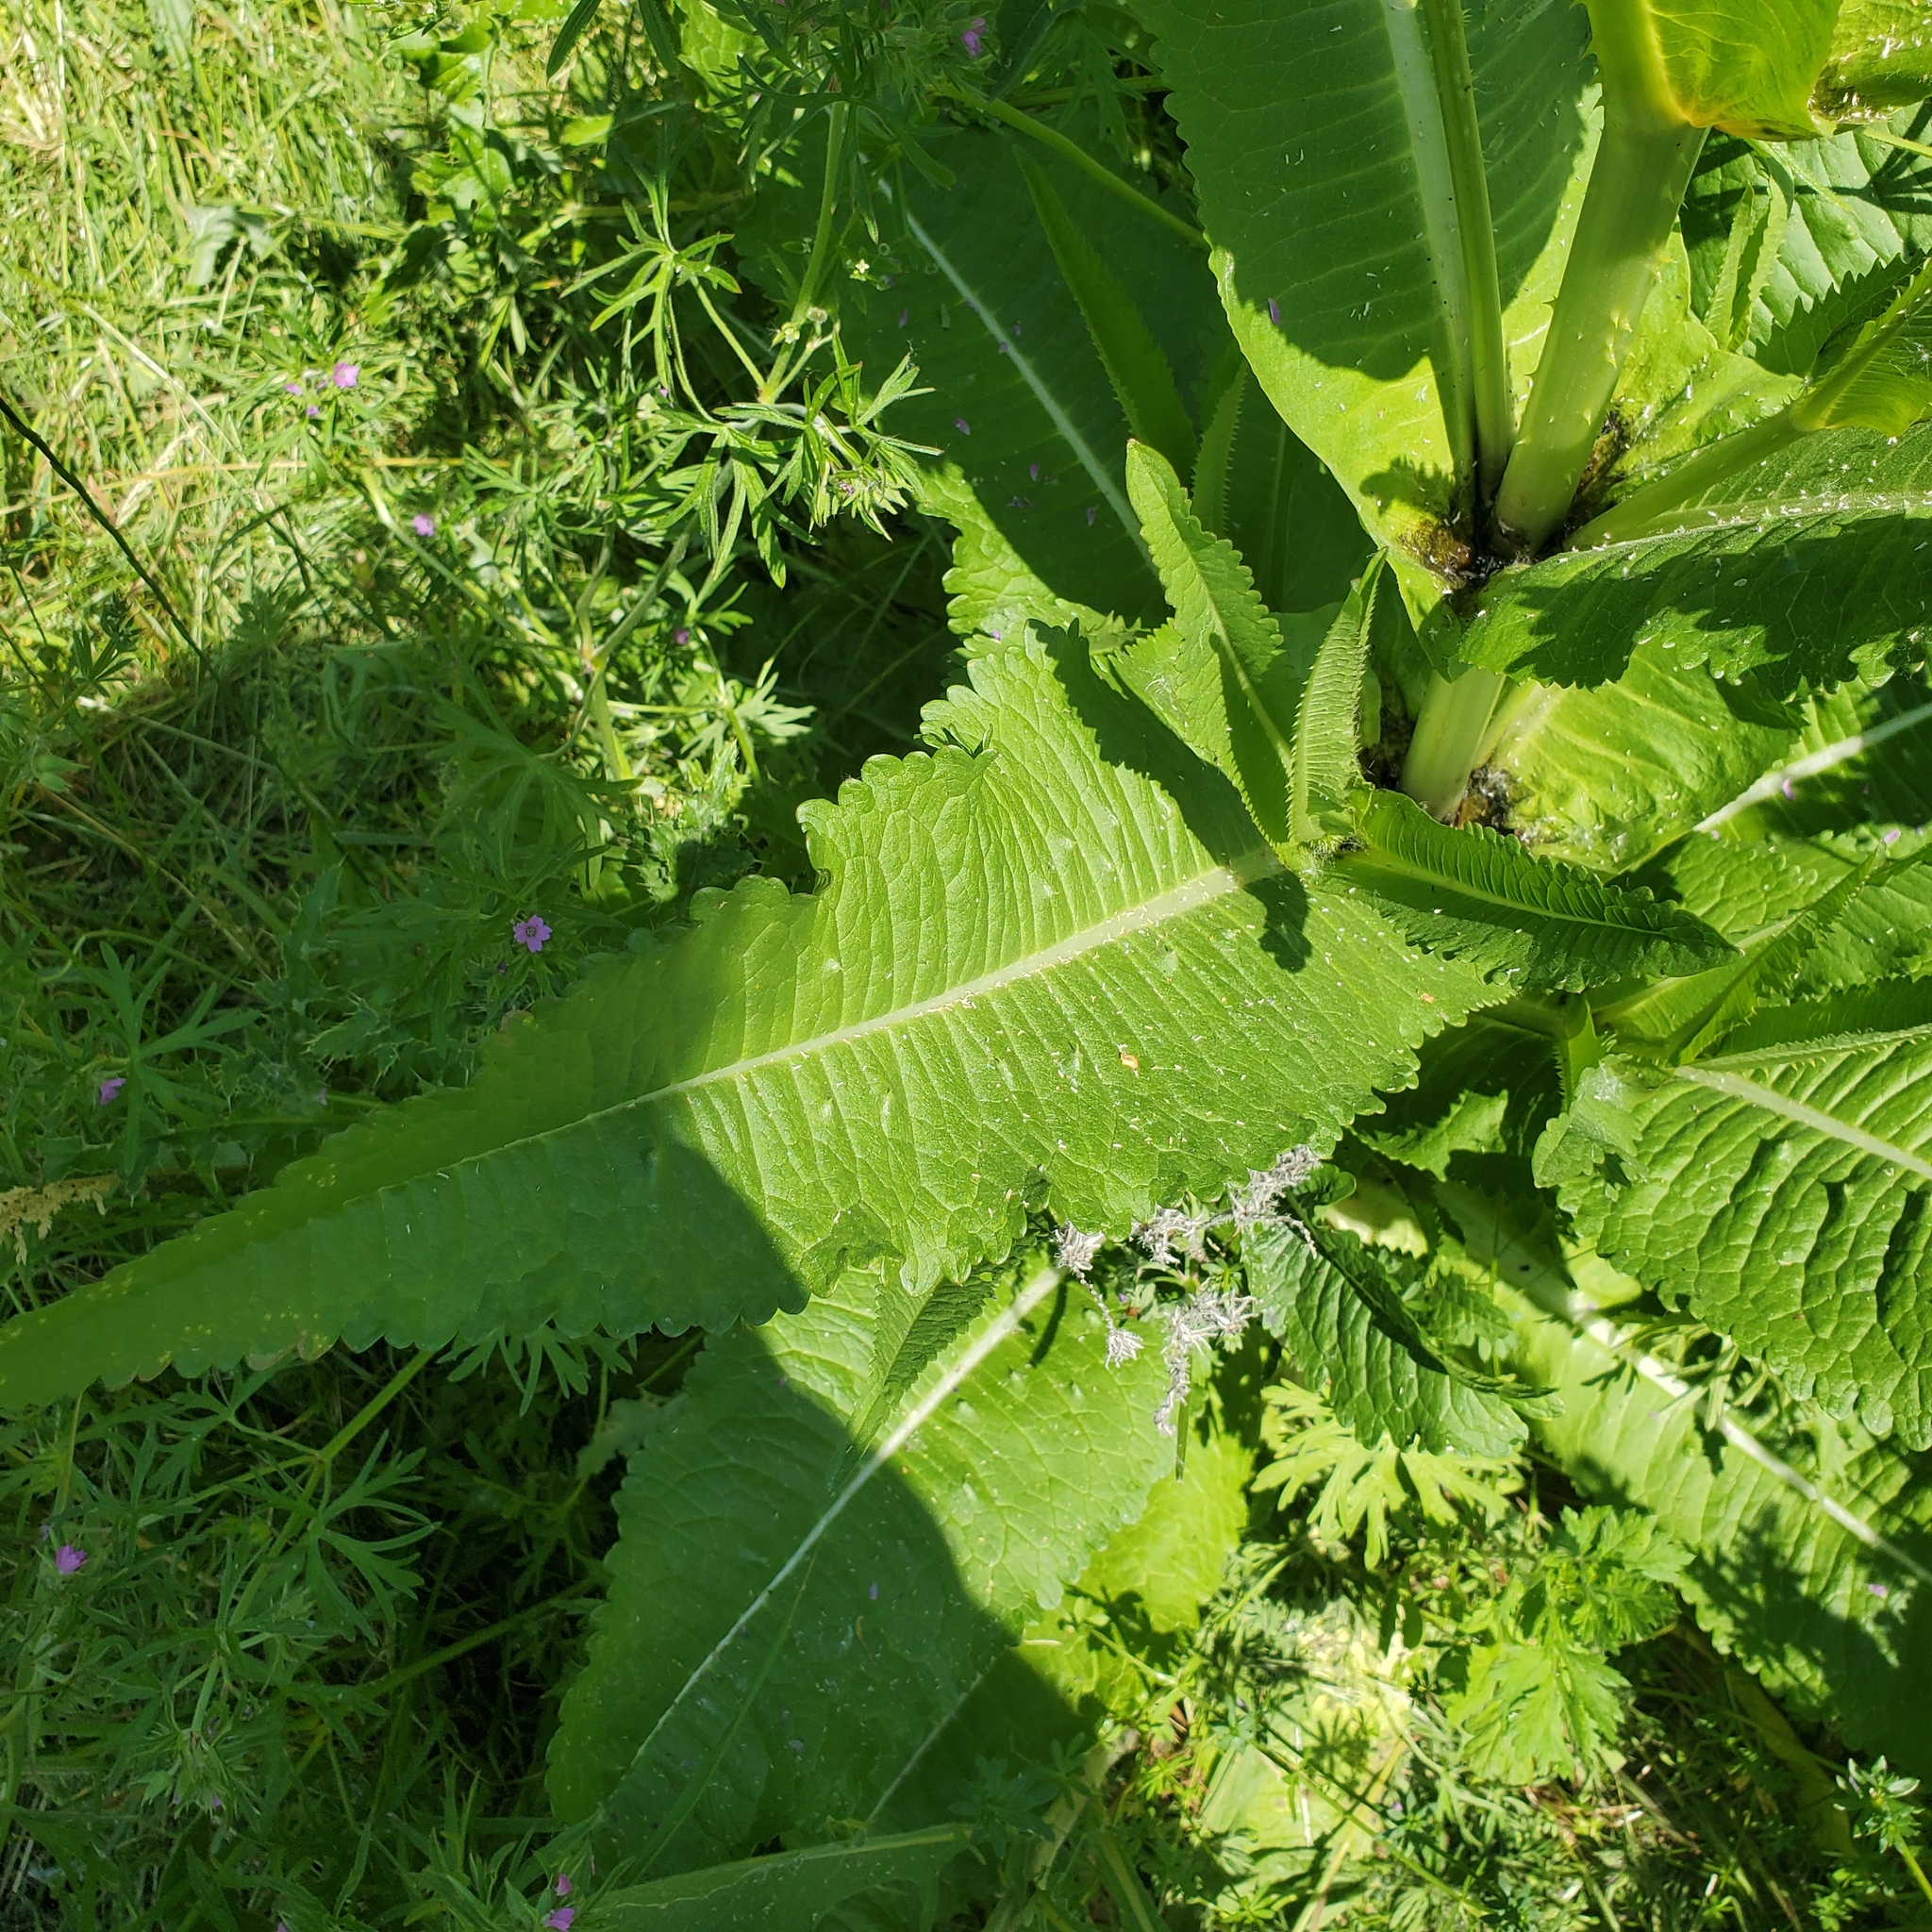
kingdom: Plantae
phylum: Tracheophyta
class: Magnoliopsida
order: Dipsacales
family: Caprifoliaceae
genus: Dipsacus
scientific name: Dipsacus fullonum
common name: Teasel
